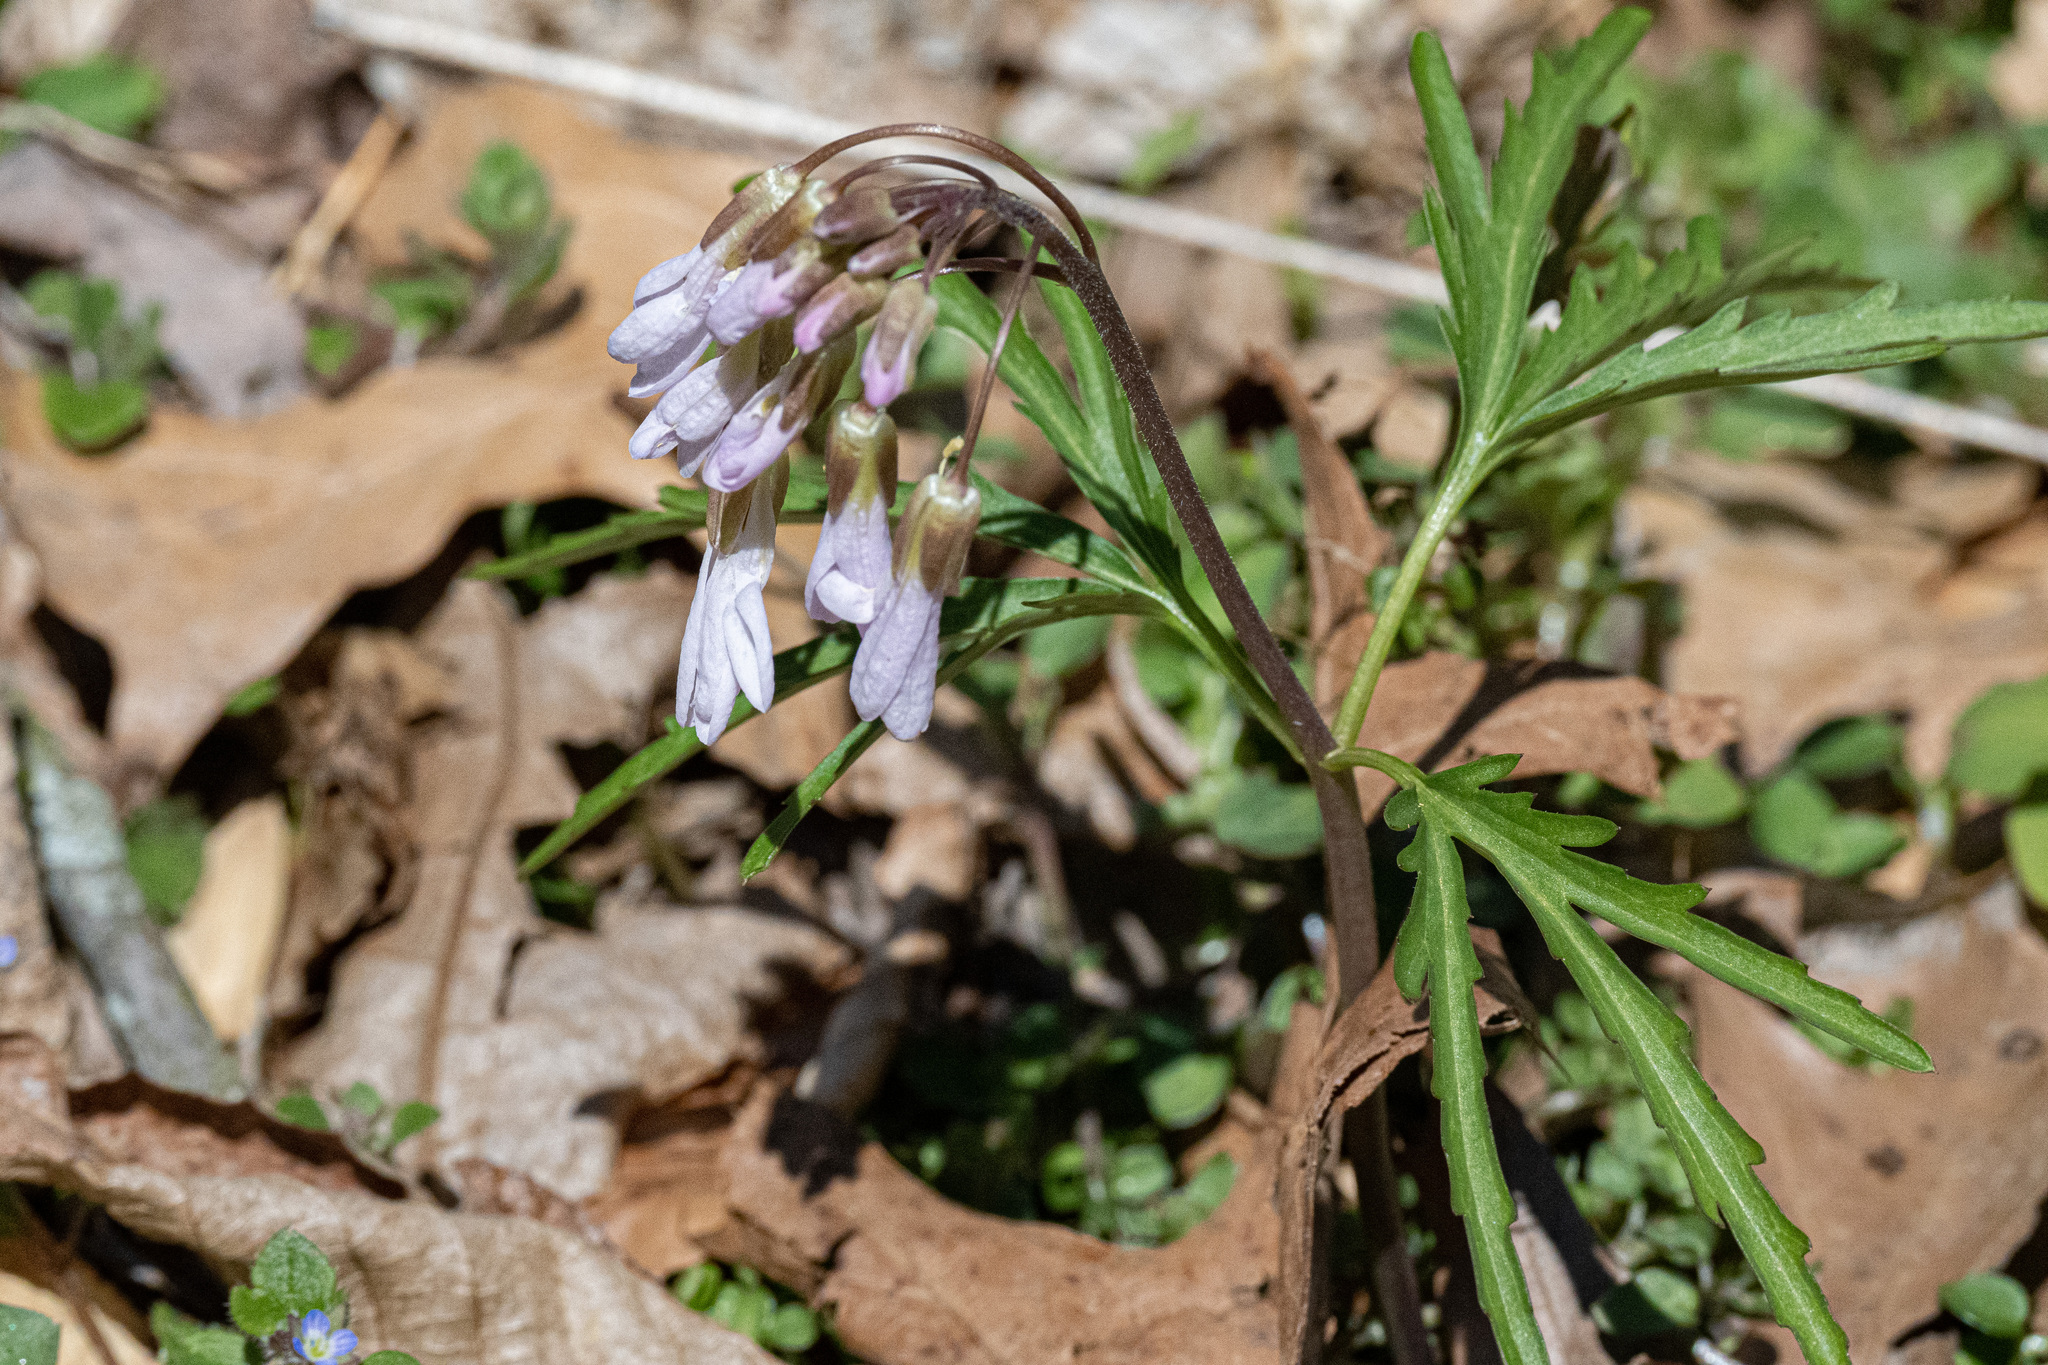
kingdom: Plantae
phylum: Tracheophyta
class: Magnoliopsida
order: Brassicales
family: Brassicaceae
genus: Cardamine
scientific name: Cardamine concatenata
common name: Cut-leaf toothcup
